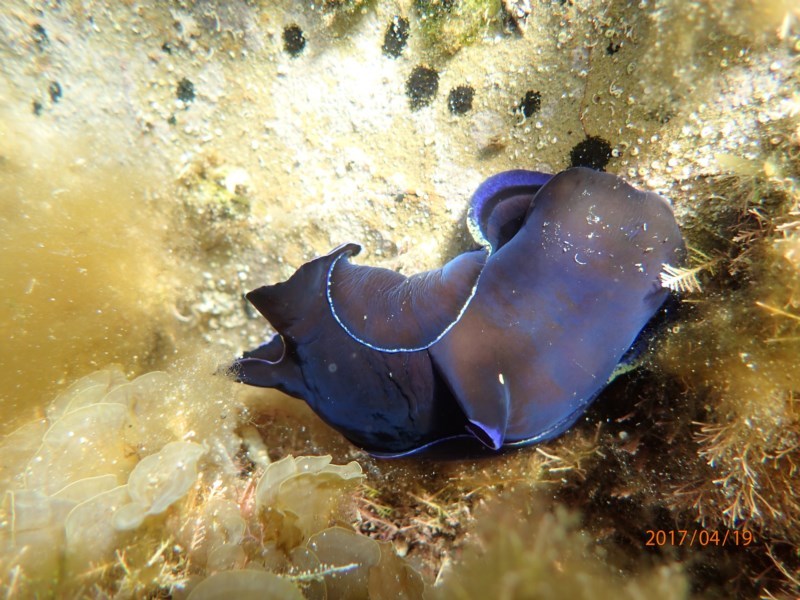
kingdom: Animalia
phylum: Mollusca
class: Gastropoda
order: Cephalaspidea
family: Aglajidae
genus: Philinopsis
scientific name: Philinopsis speciosa
